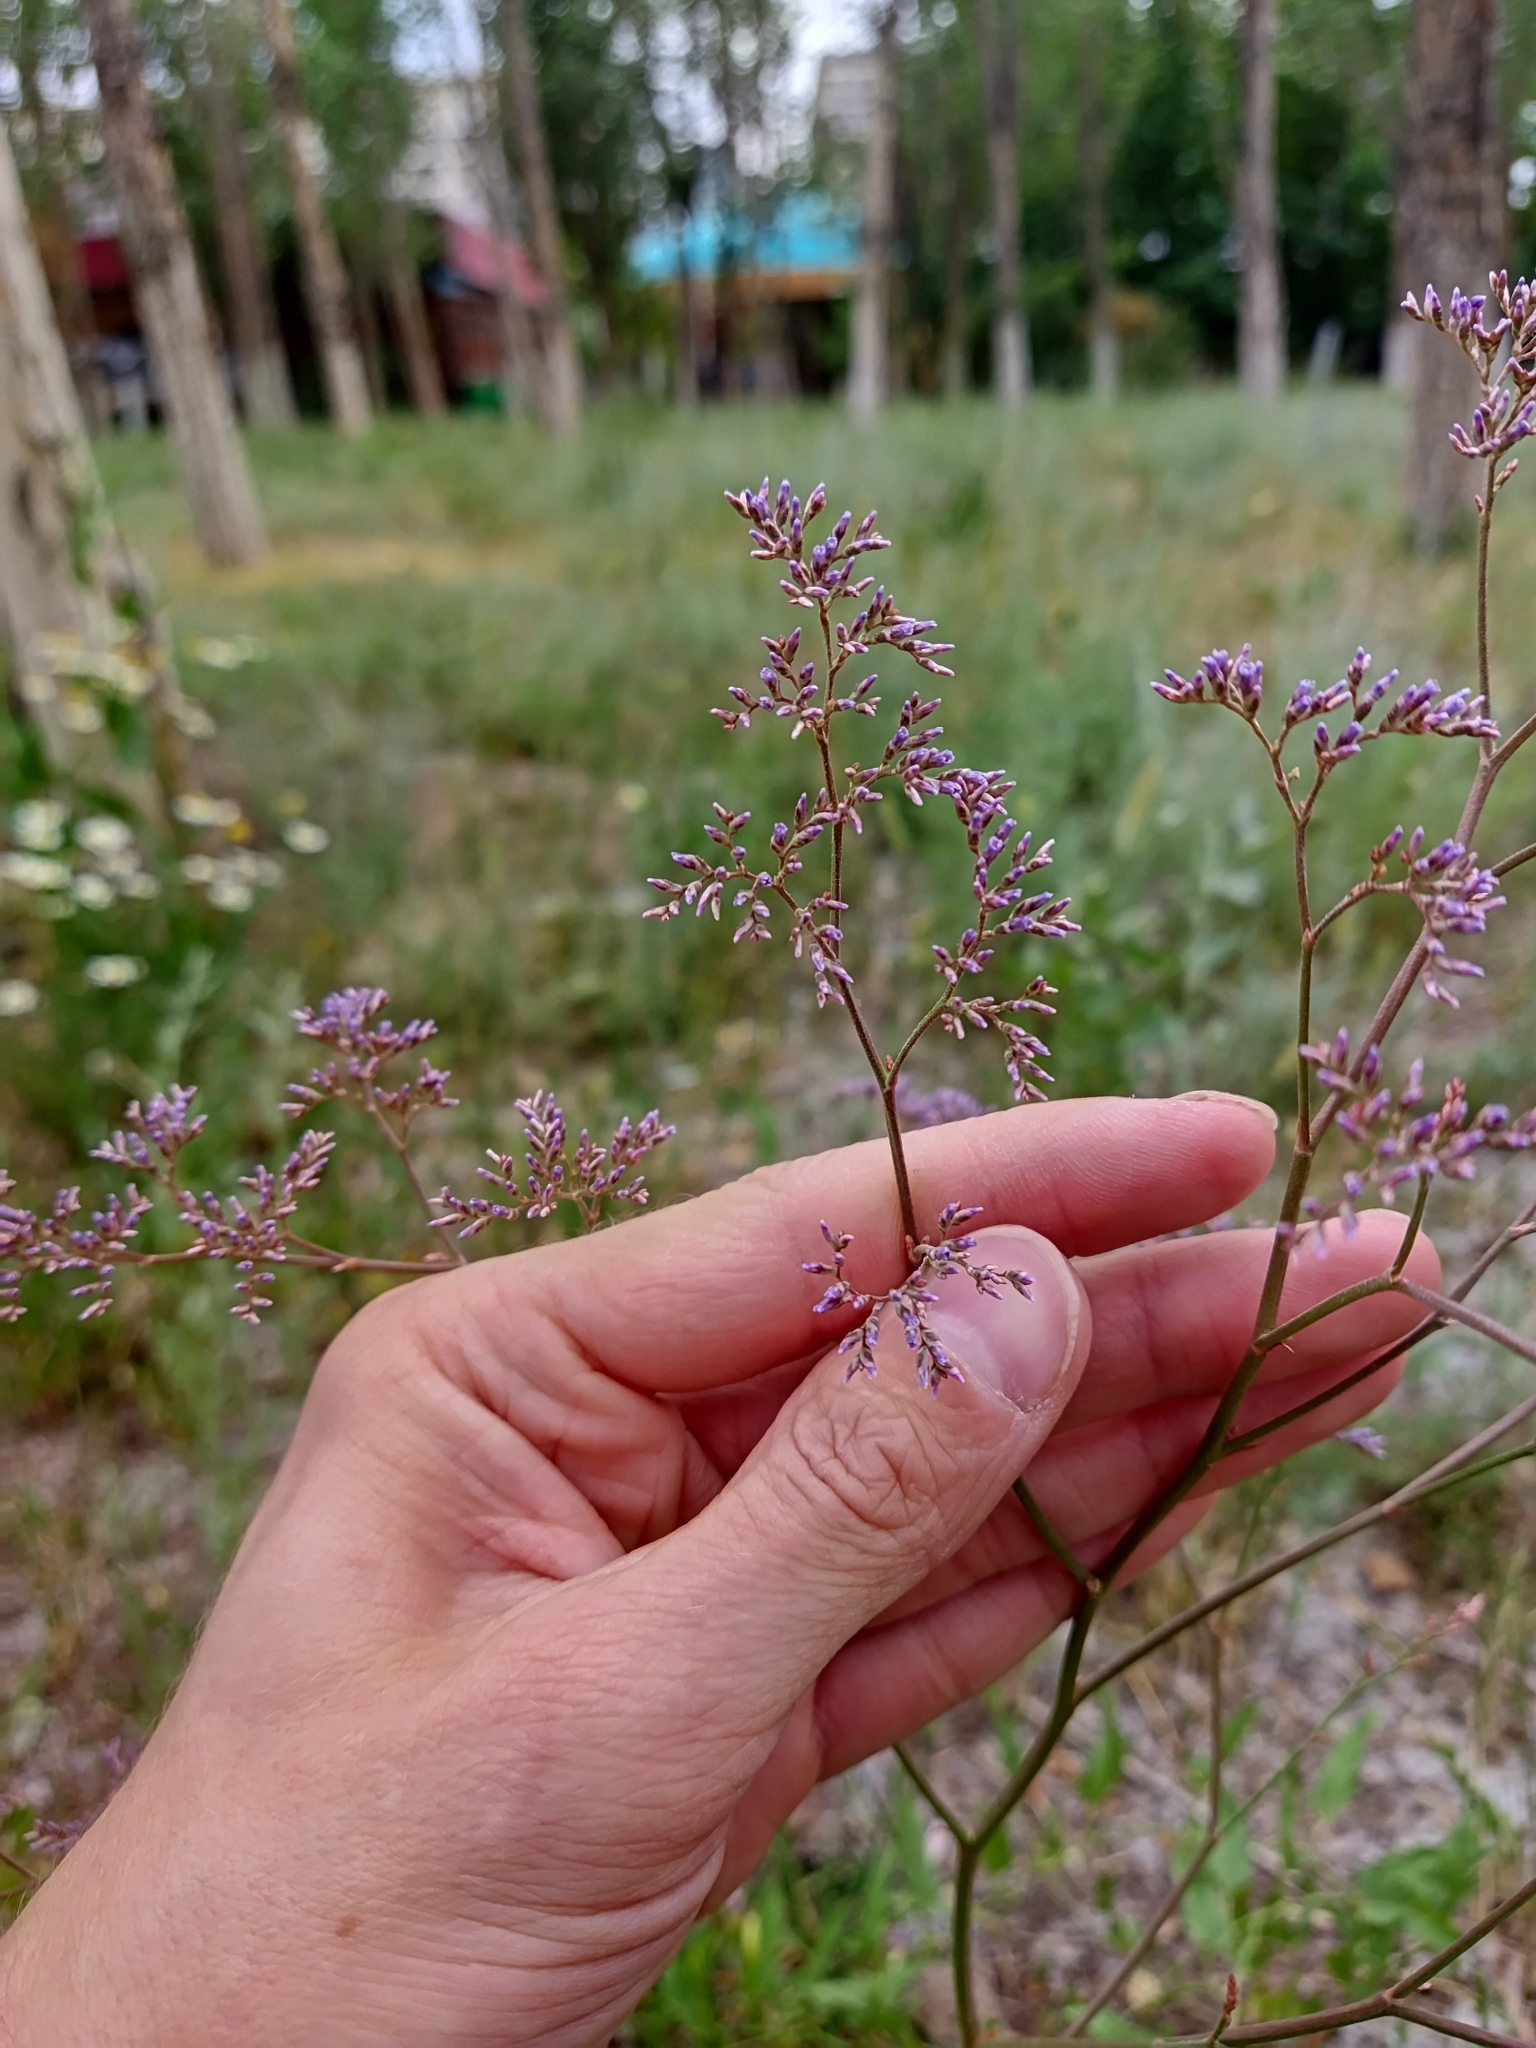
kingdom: Plantae
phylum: Tracheophyta
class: Magnoliopsida
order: Caryophyllales
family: Plumbaginaceae
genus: Limonium
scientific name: Limonium gmelini
